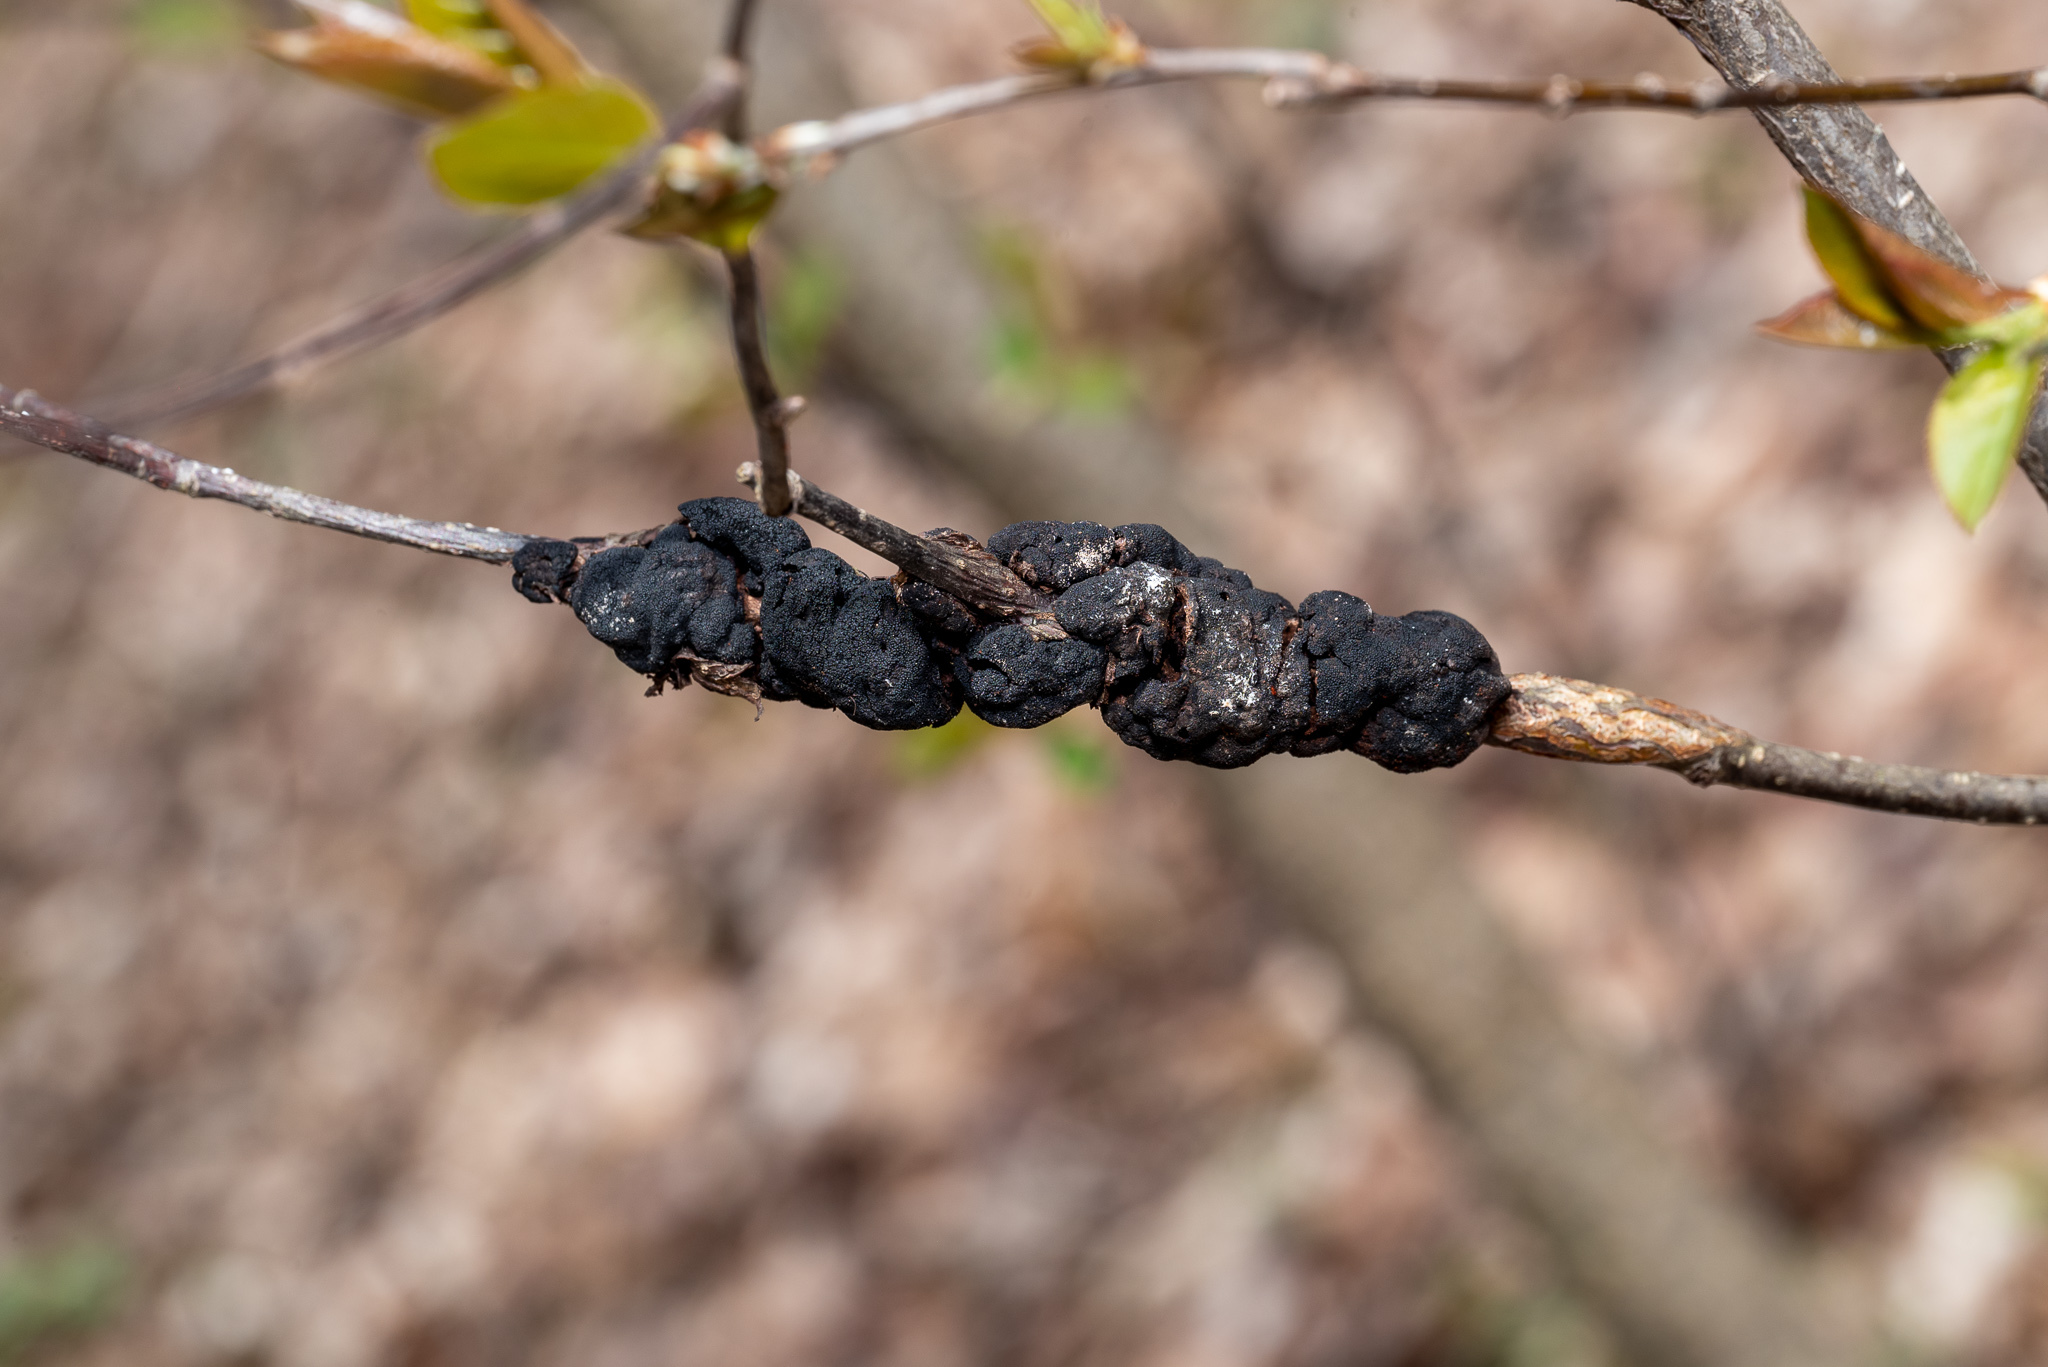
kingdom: Fungi
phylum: Ascomycota
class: Dothideomycetes
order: Venturiales
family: Venturiaceae
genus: Apiosporina
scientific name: Apiosporina morbosa
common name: Black knot
